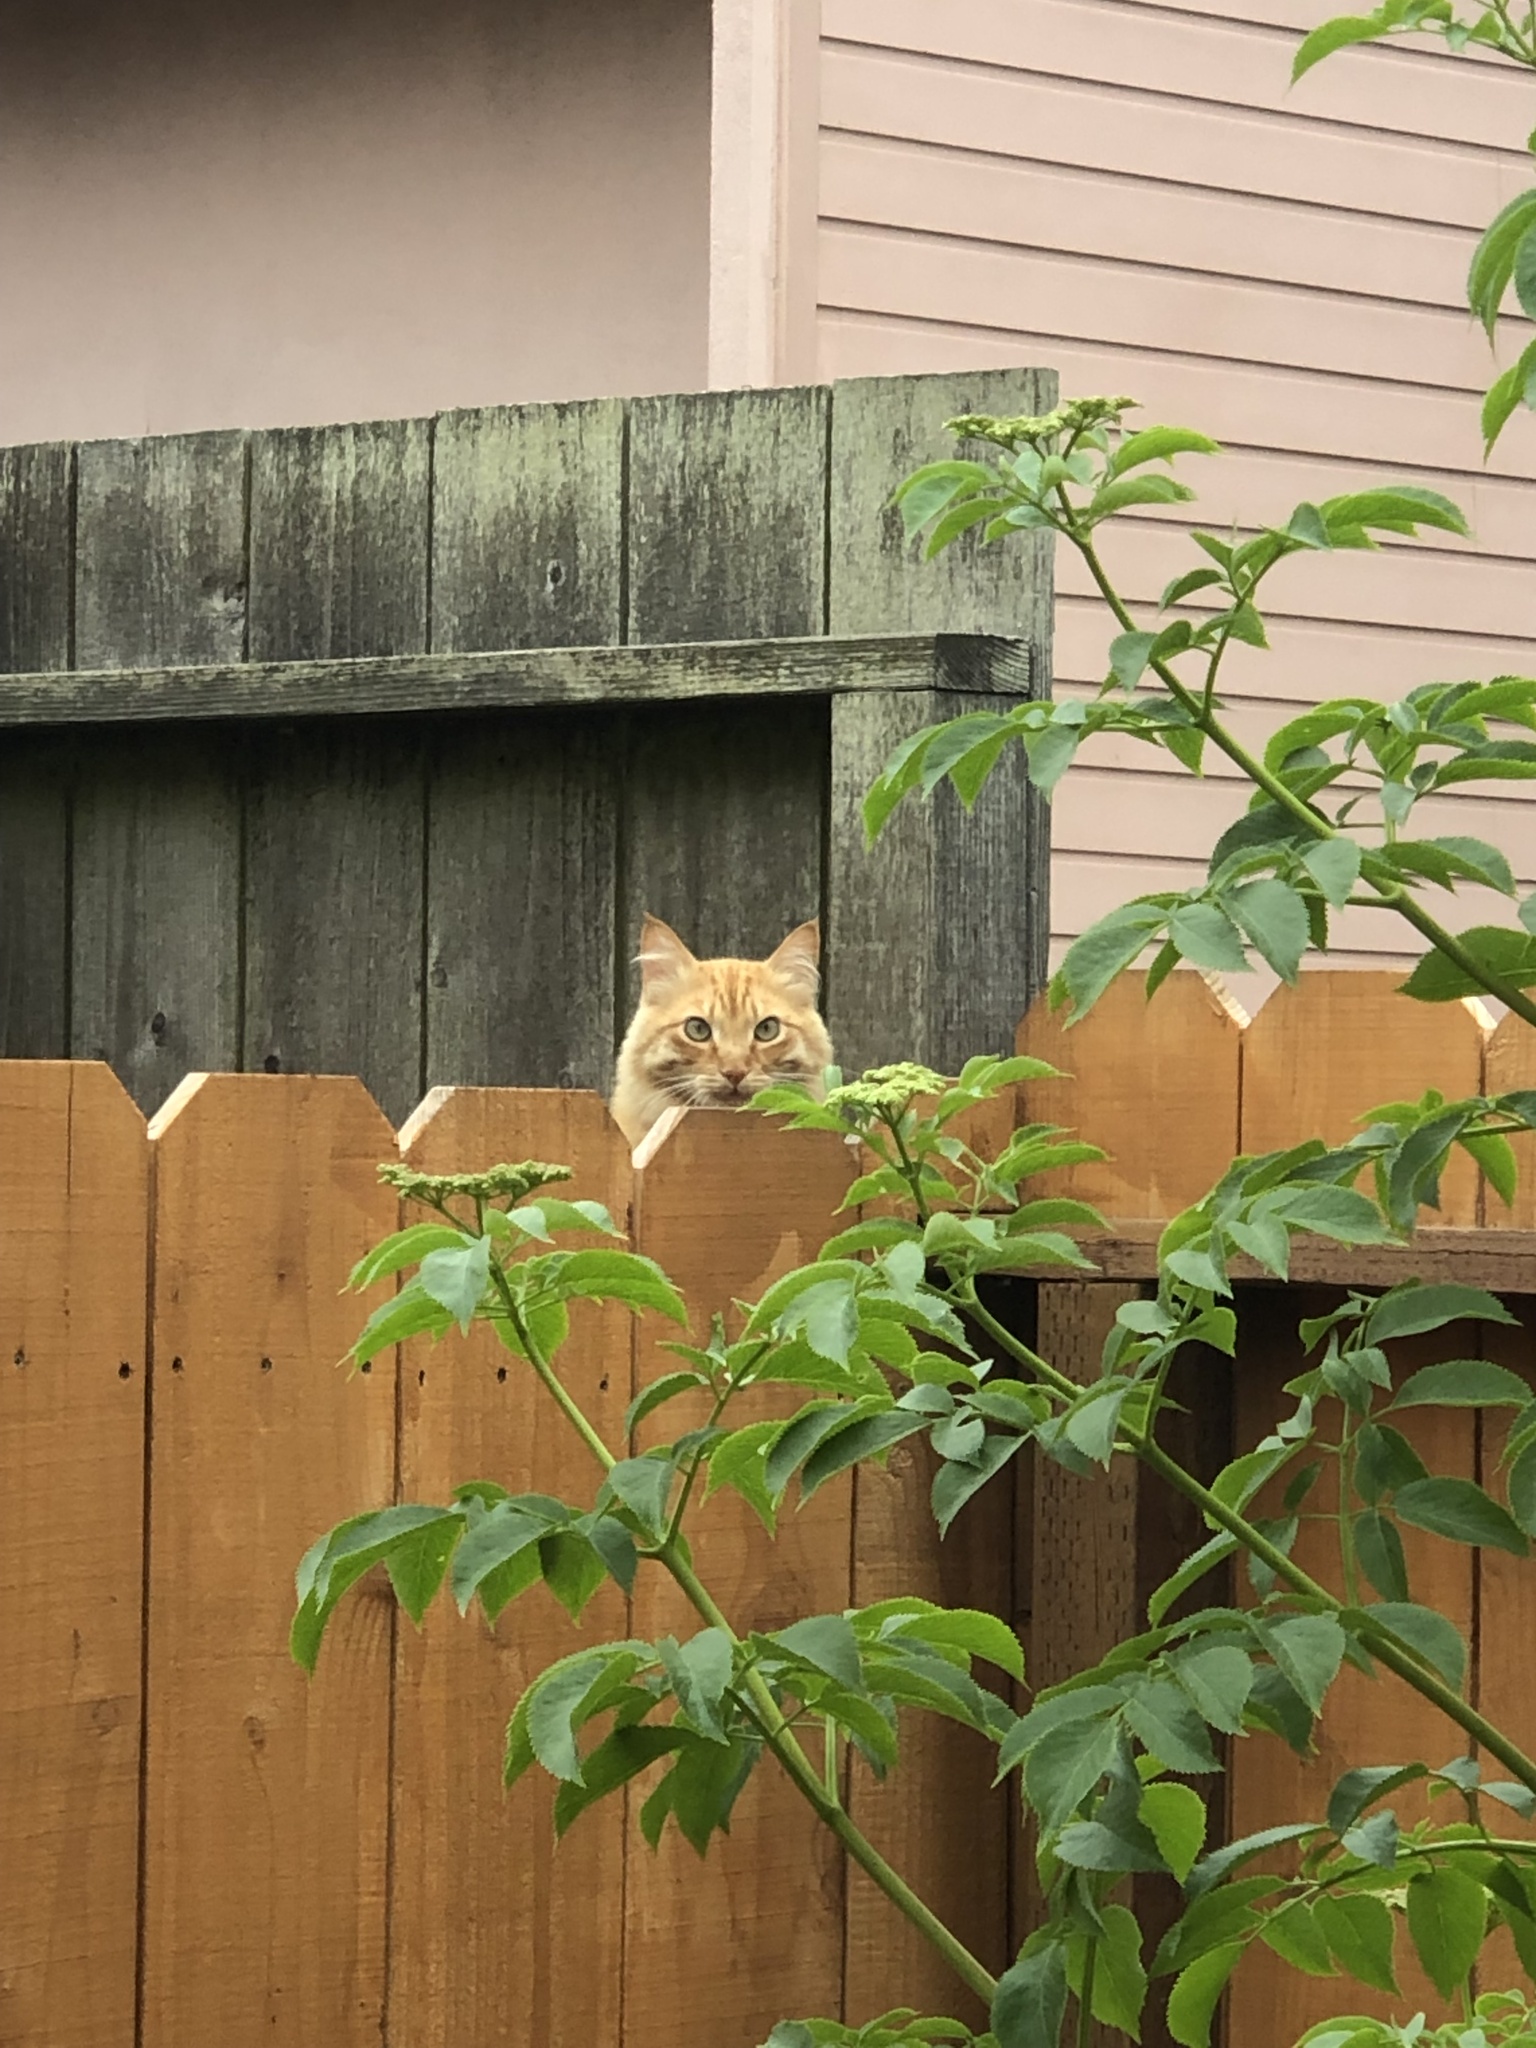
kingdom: Animalia
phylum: Chordata
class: Mammalia
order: Carnivora
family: Felidae
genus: Felis
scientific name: Felis catus
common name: Domestic cat
